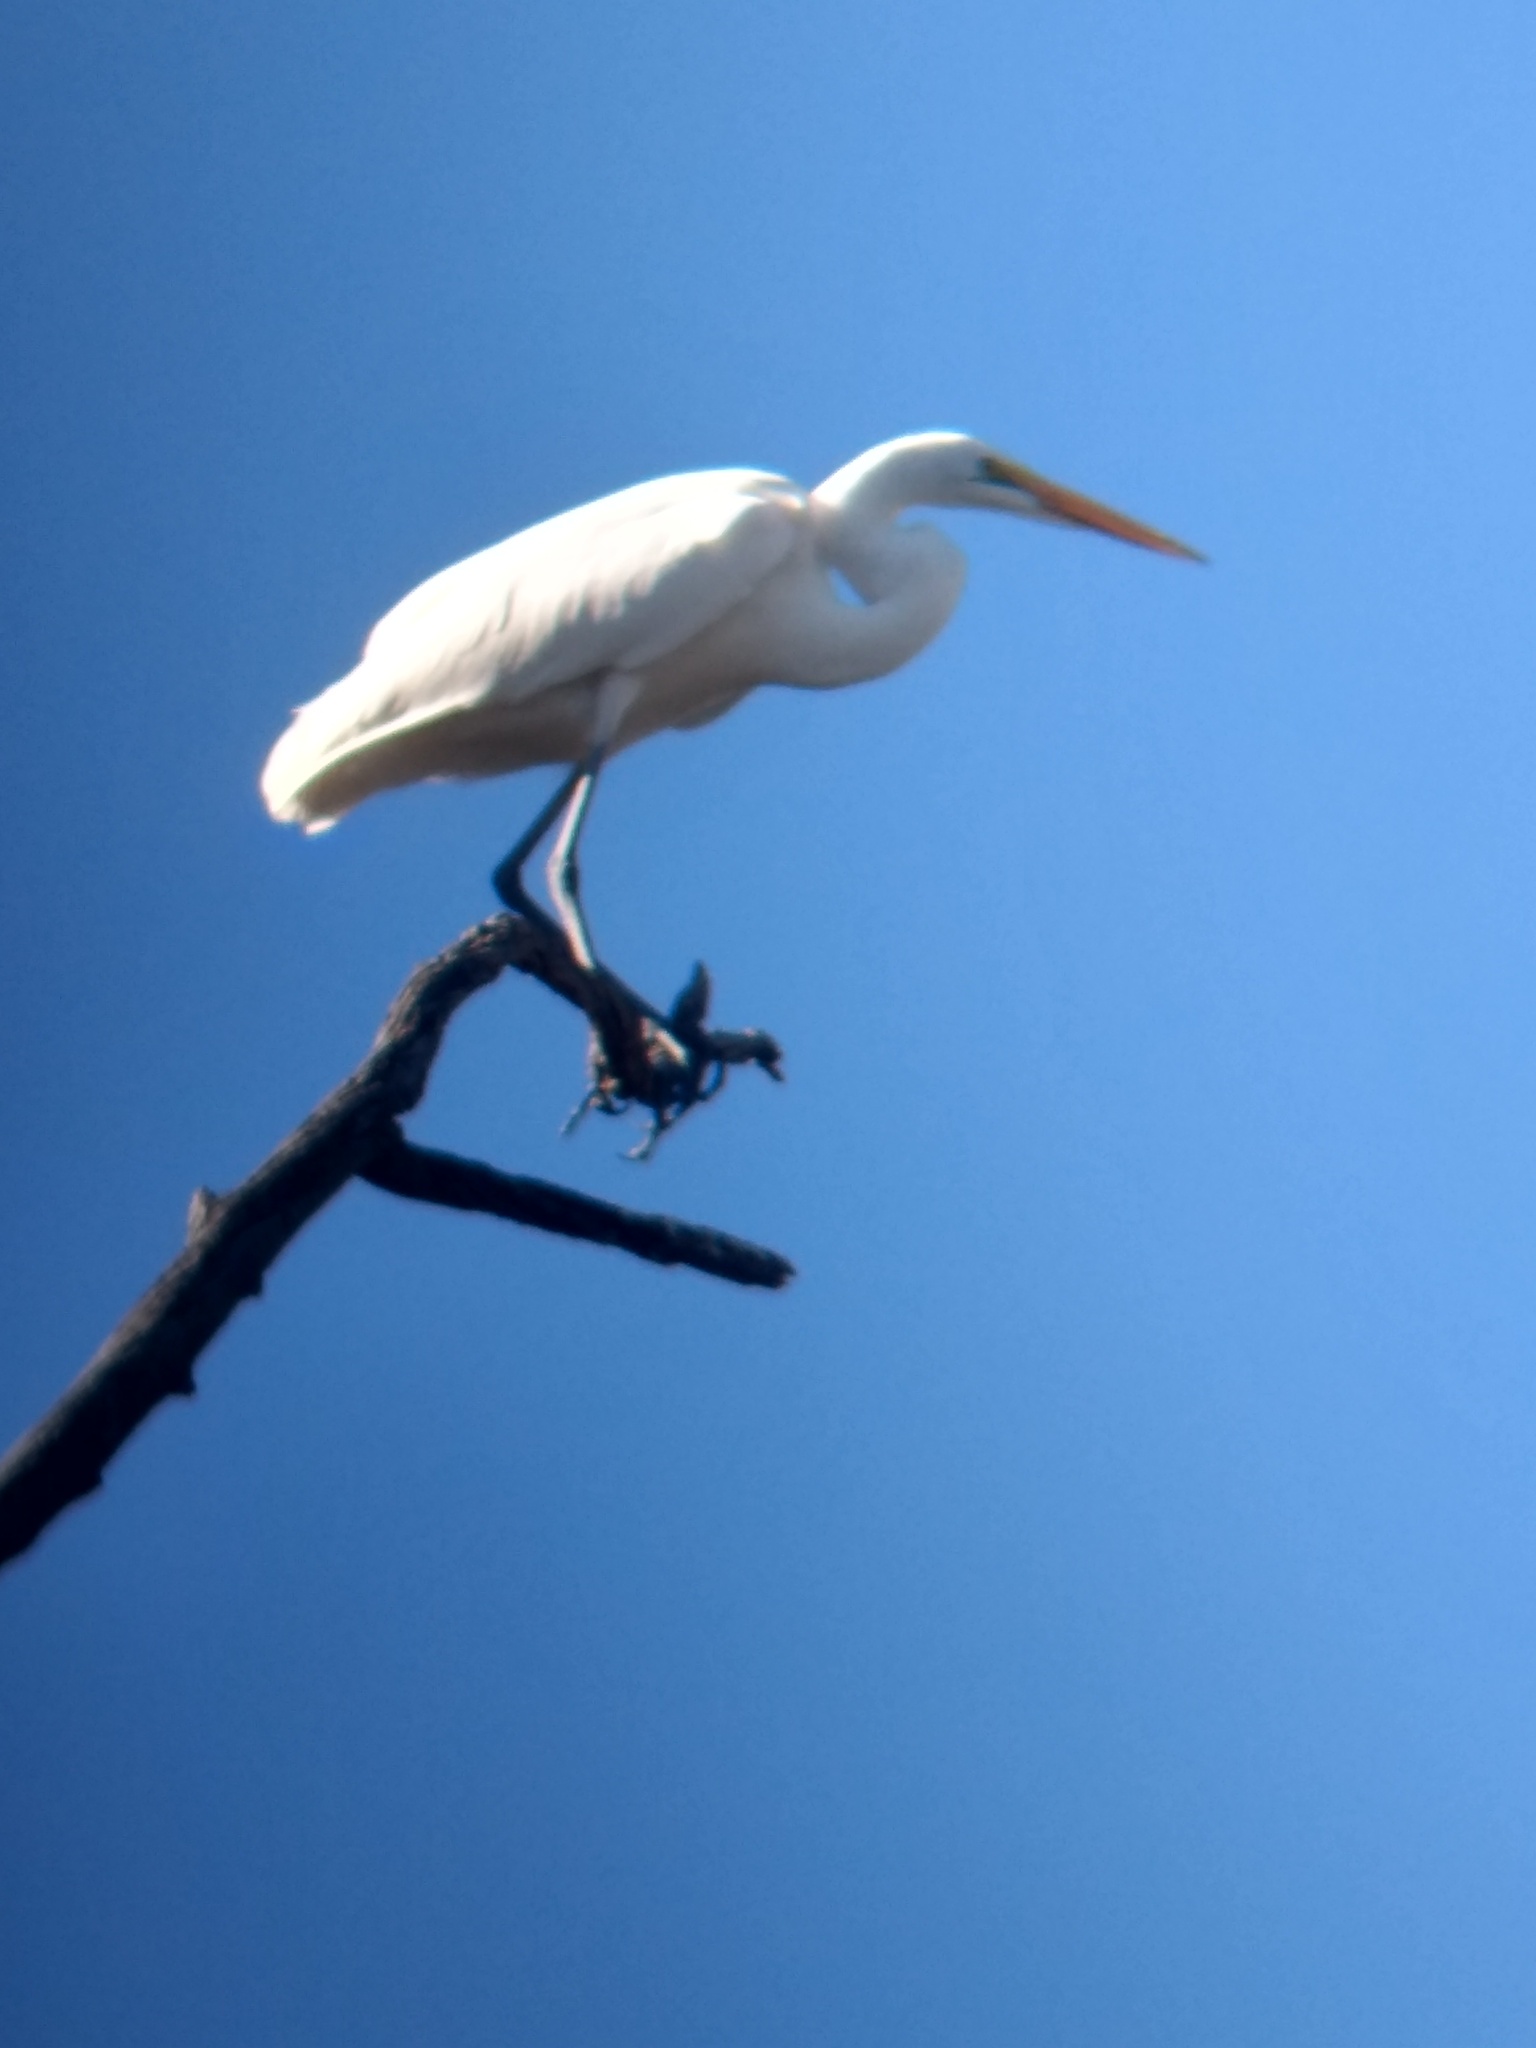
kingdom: Animalia
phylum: Chordata
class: Aves
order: Pelecaniformes
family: Ardeidae
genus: Ardea
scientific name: Ardea alba
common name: Great egret
